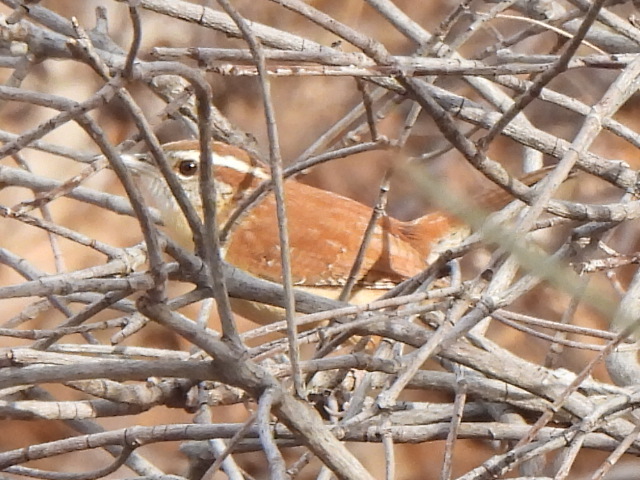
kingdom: Animalia
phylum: Chordata
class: Aves
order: Passeriformes
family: Troglodytidae
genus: Thryothorus
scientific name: Thryothorus ludovicianus
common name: Carolina wren
